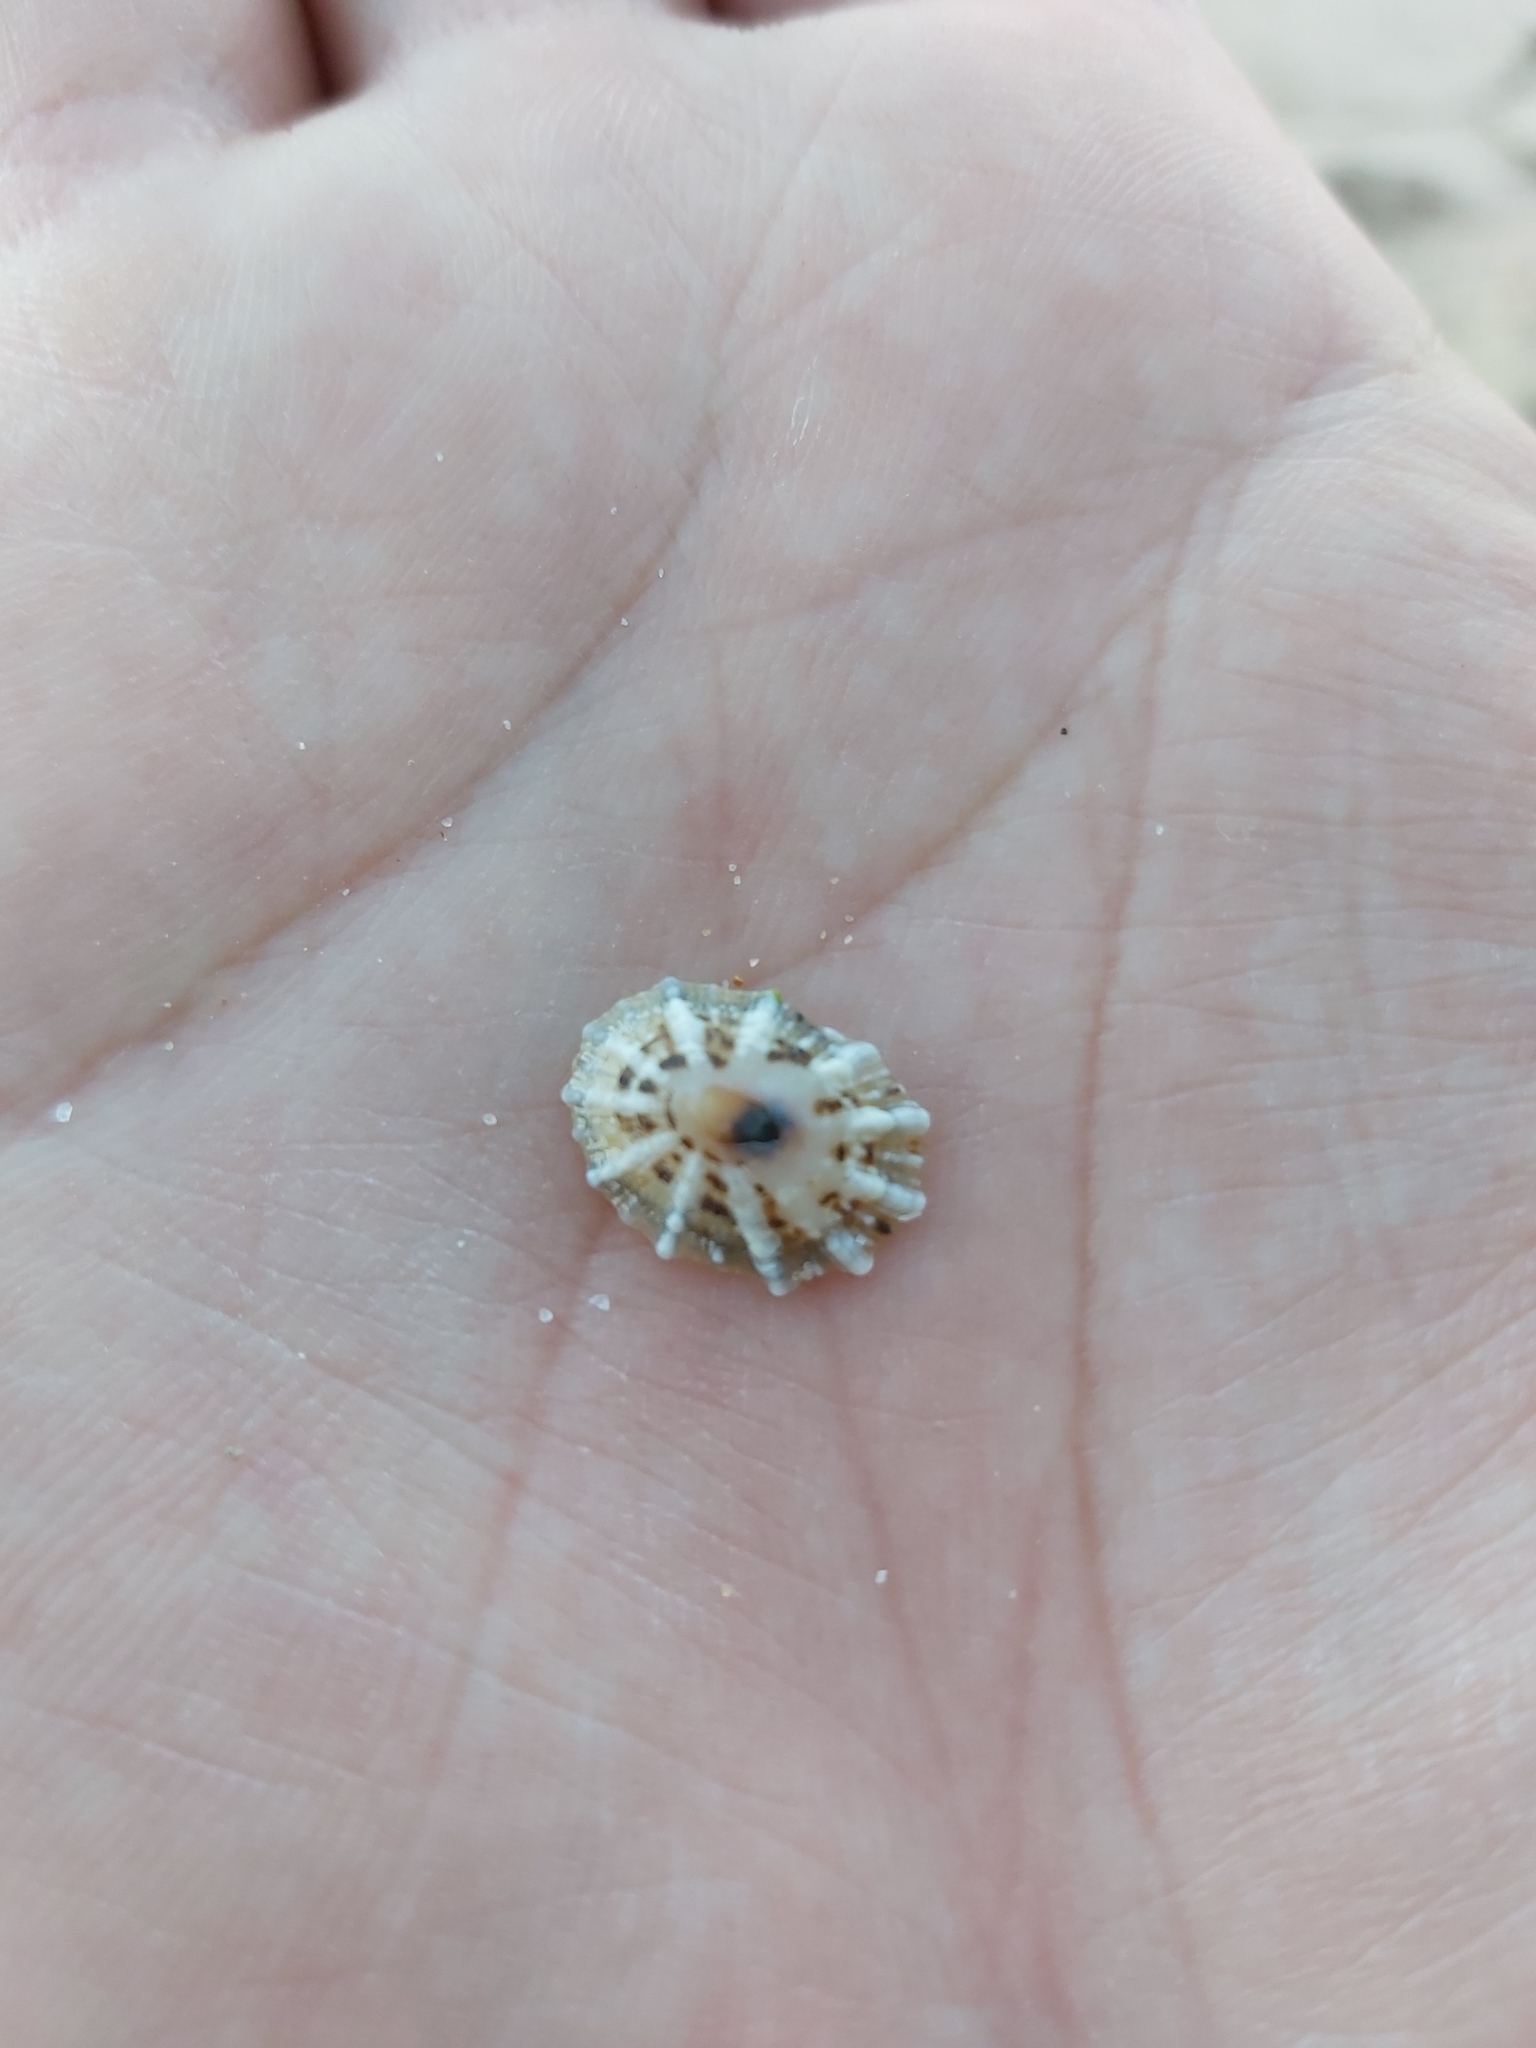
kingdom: Animalia
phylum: Mollusca
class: Gastropoda
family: Patellidae
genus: Scutellastra
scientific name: Scutellastra peronii
